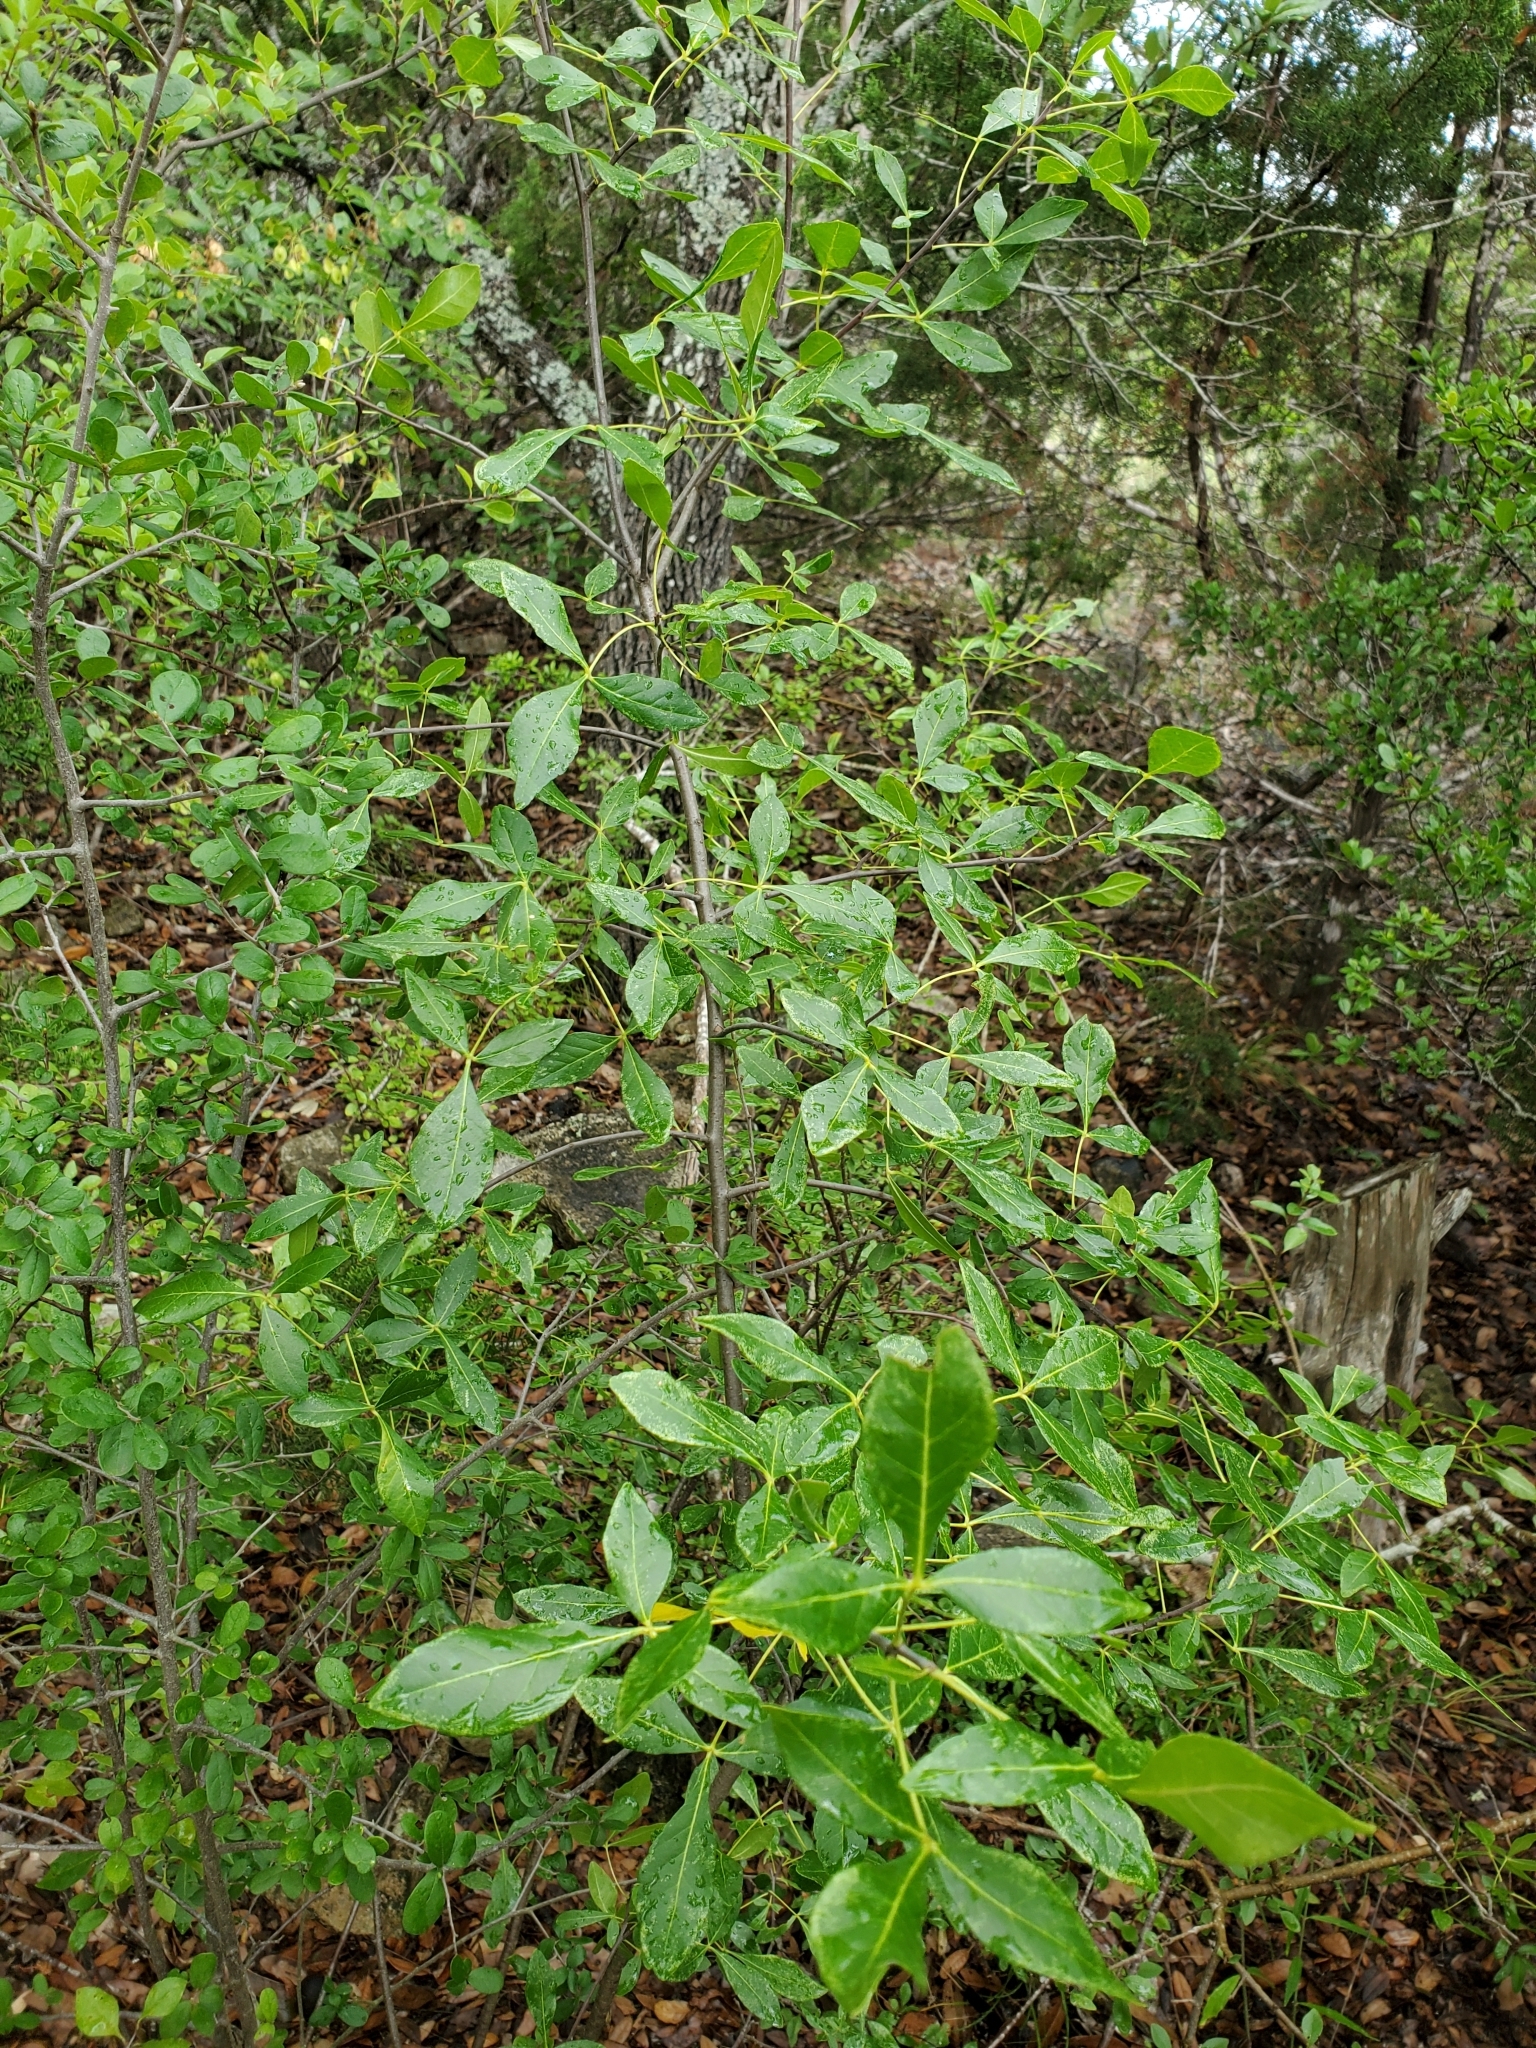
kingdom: Plantae
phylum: Tracheophyta
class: Magnoliopsida
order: Sapindales
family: Rutaceae
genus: Ptelea
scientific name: Ptelea trifoliata
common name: Common hop-tree
